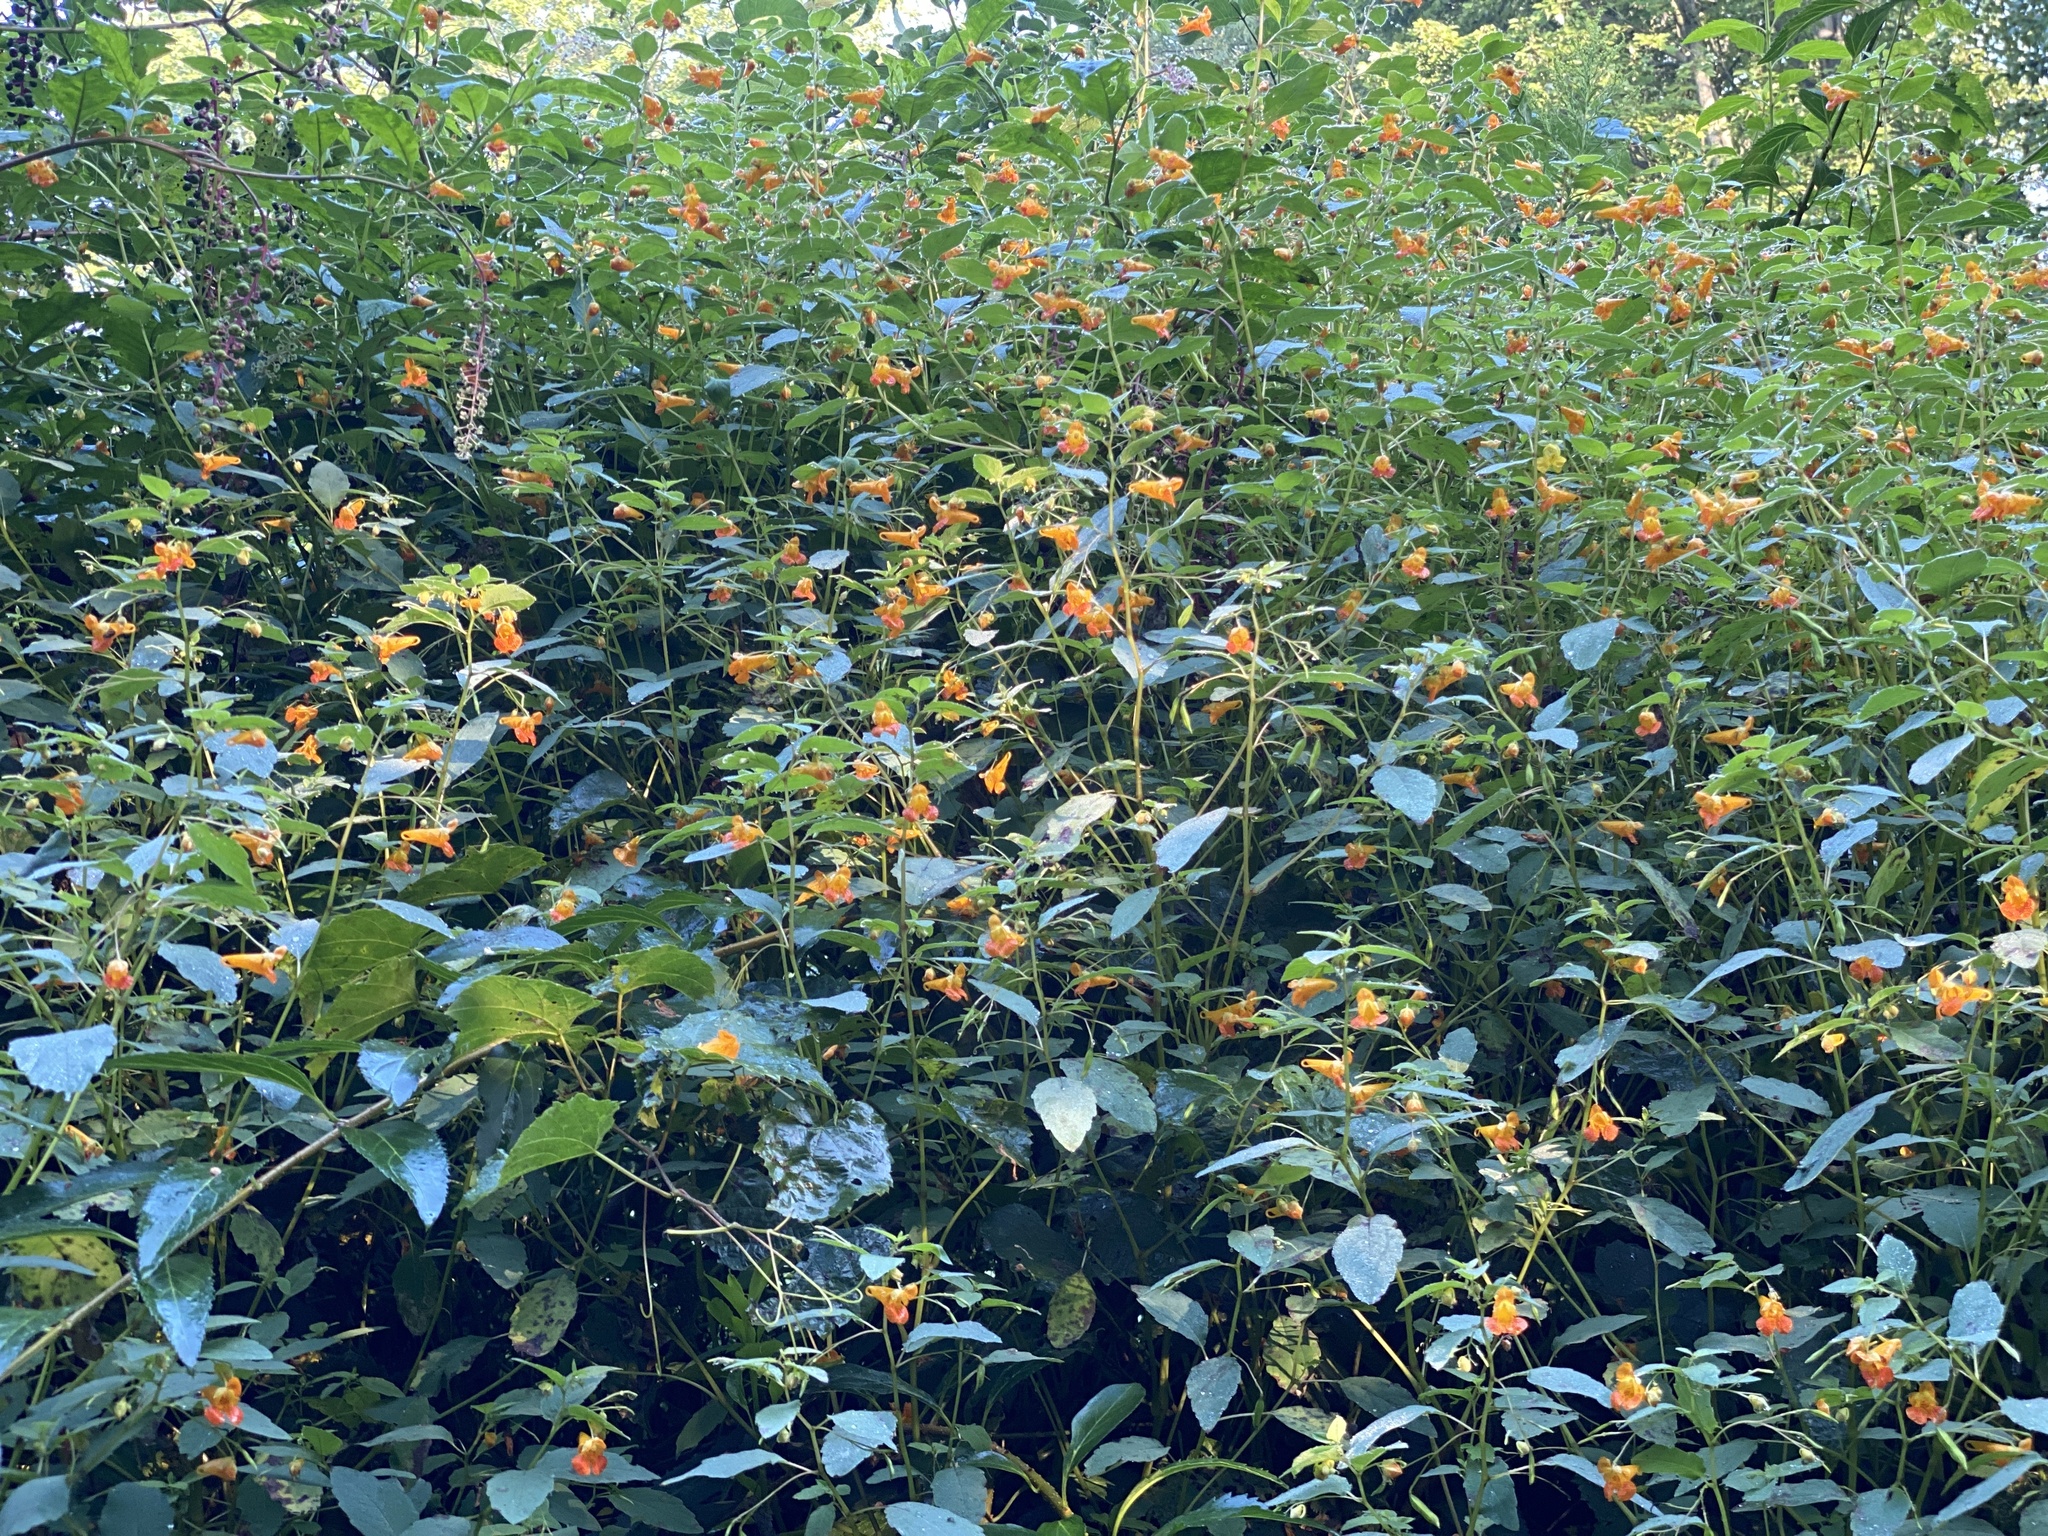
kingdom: Plantae
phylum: Tracheophyta
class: Magnoliopsida
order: Ericales
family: Balsaminaceae
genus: Impatiens
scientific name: Impatiens capensis
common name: Orange balsam
